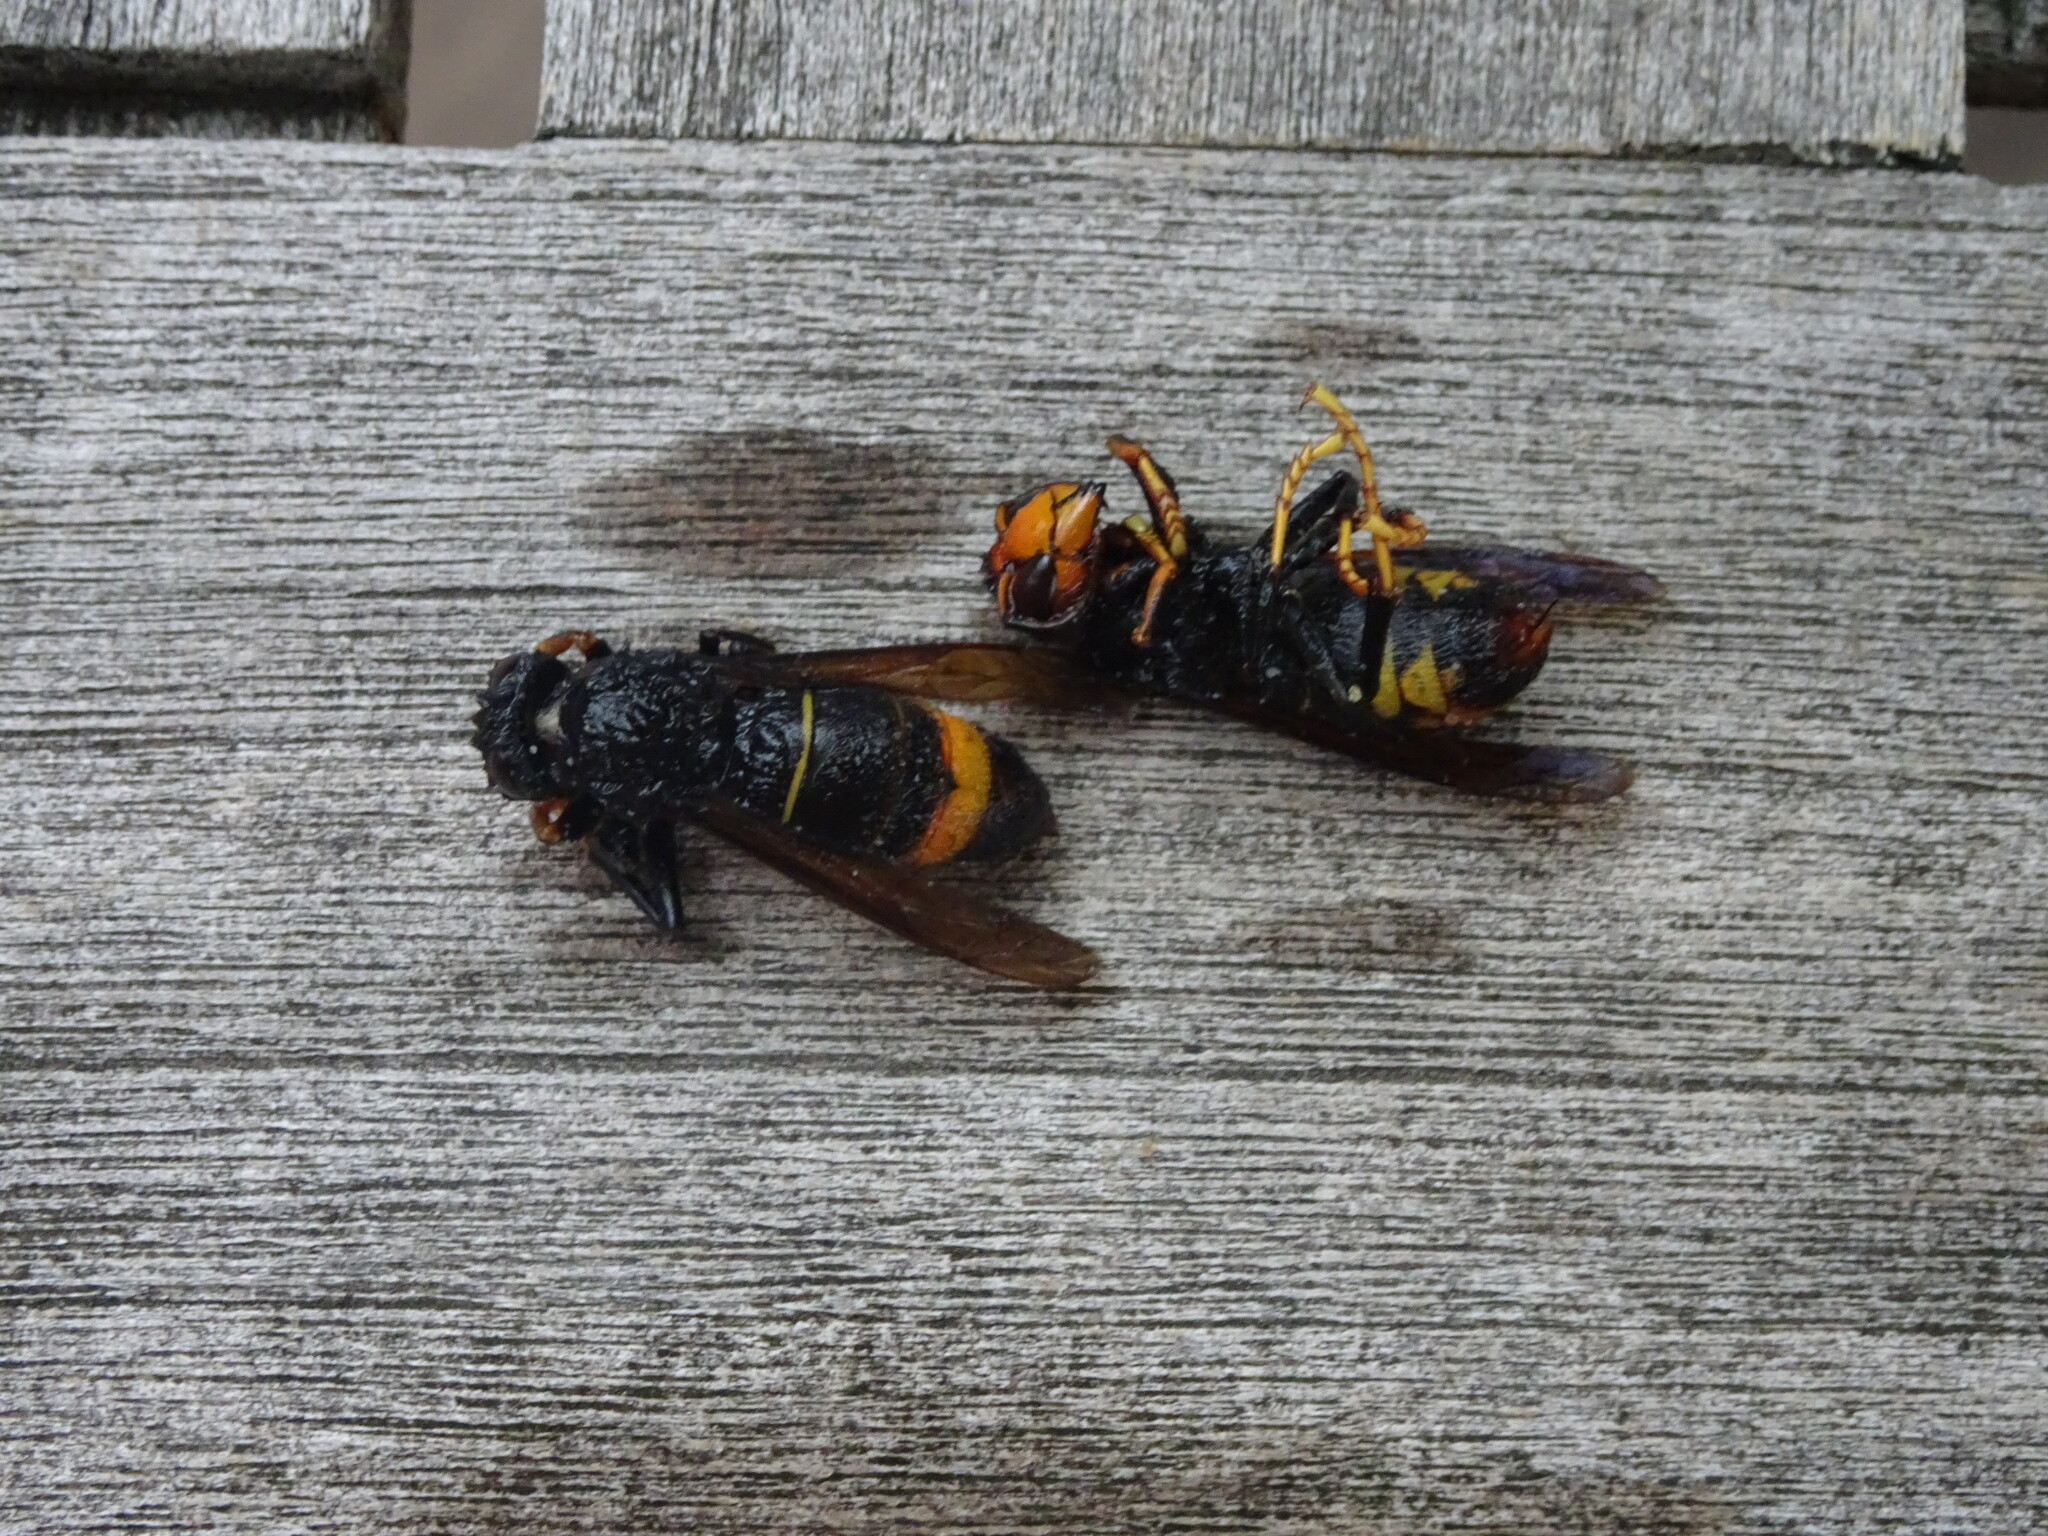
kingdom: Animalia
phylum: Arthropoda
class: Insecta
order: Hymenoptera
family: Vespidae
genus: Vespa
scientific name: Vespa velutina
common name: Asian hornet
